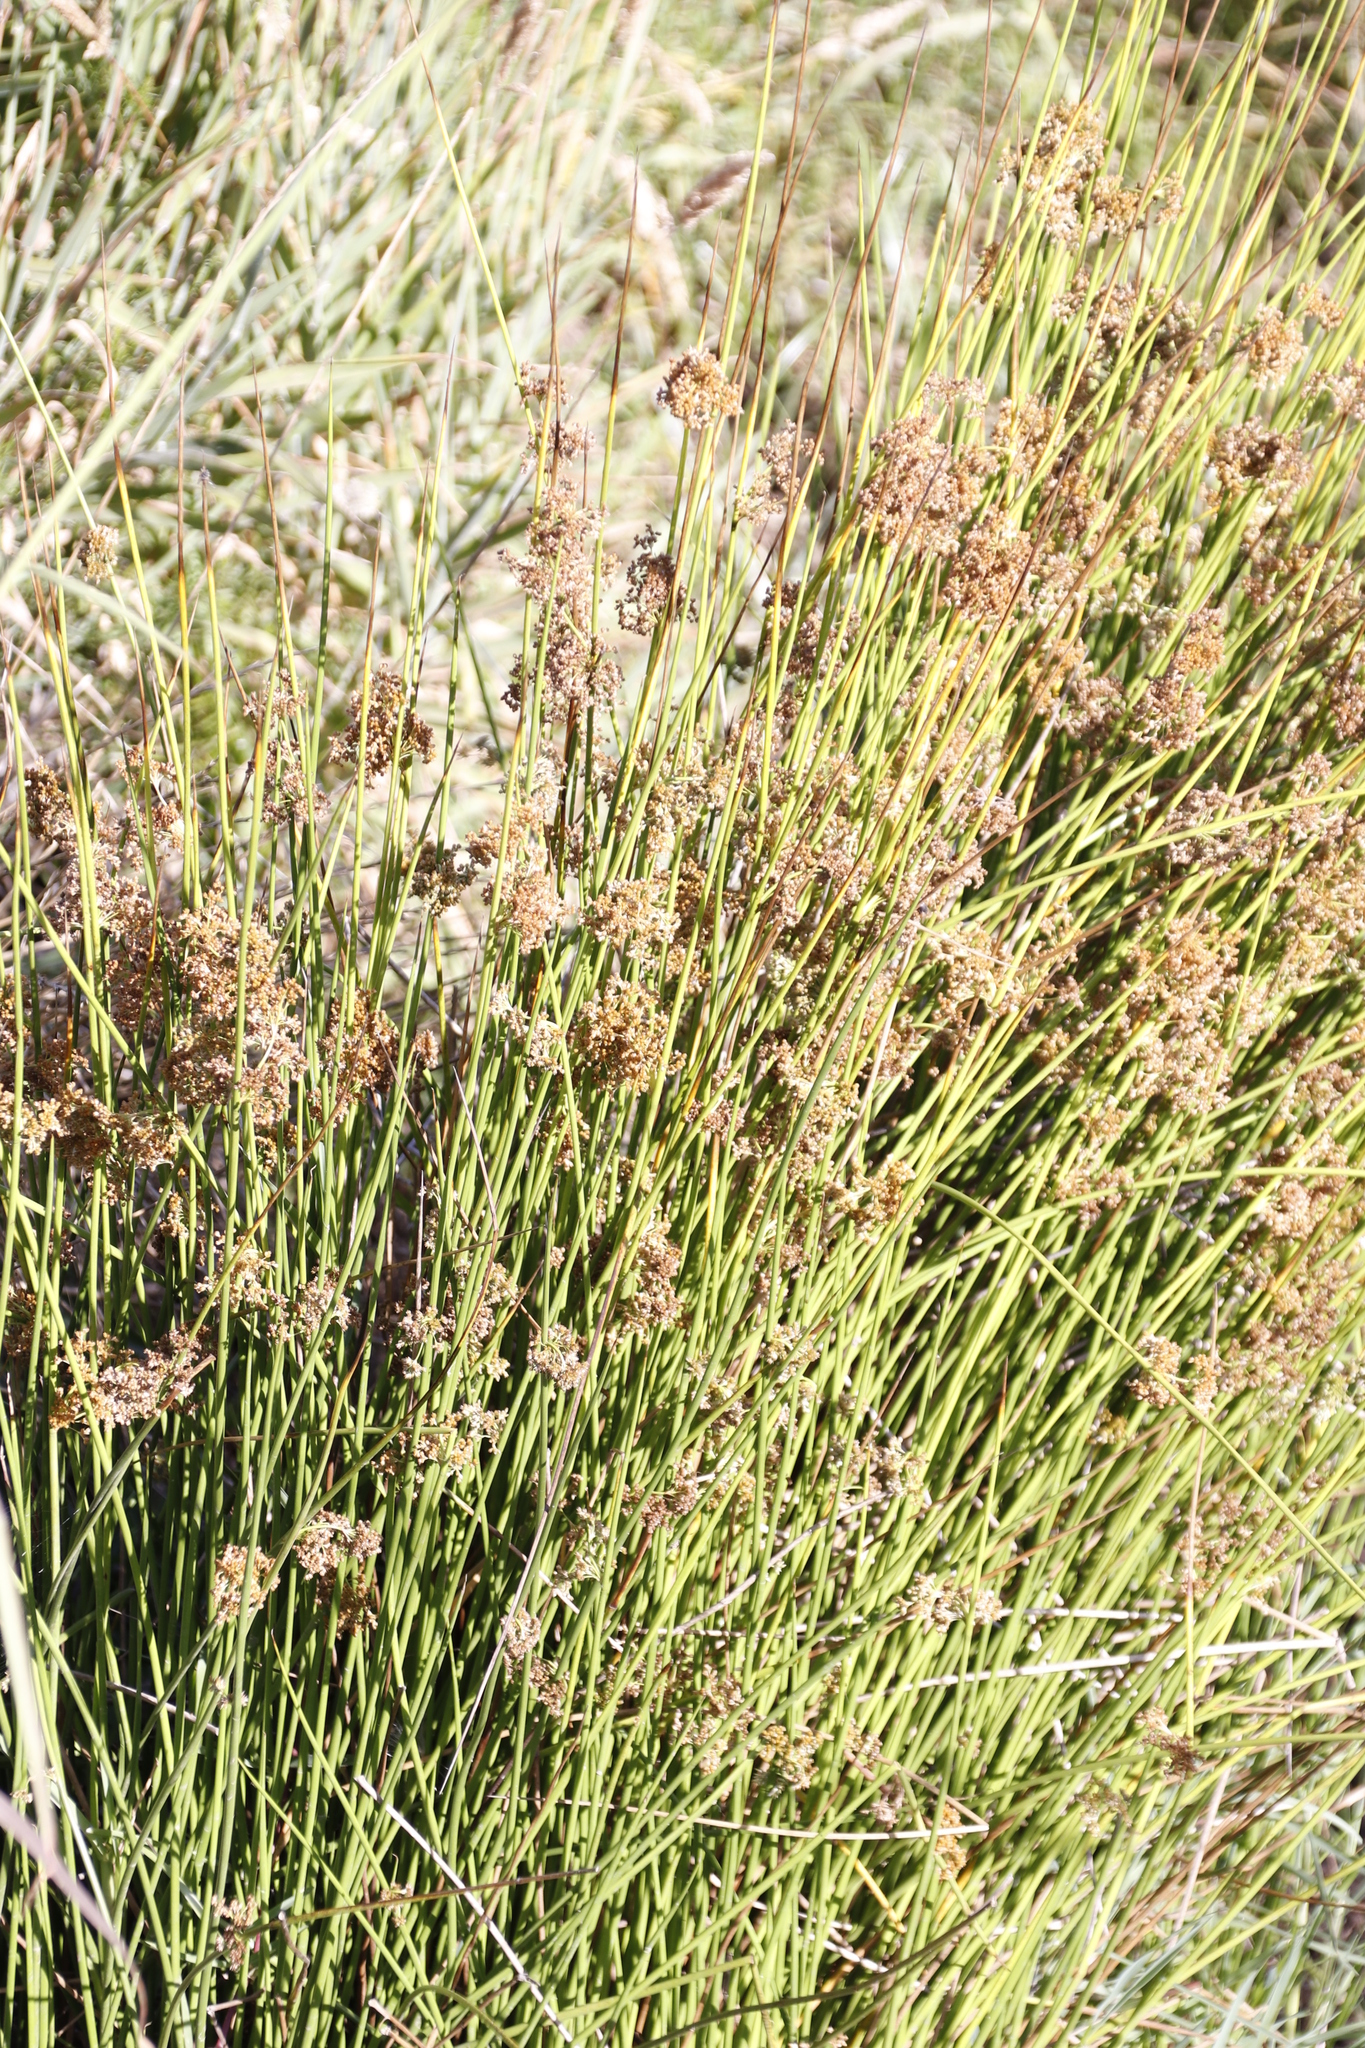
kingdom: Plantae
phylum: Tracheophyta
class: Liliopsida
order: Poales
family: Juncaceae
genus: Juncus
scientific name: Juncus effusus
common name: Soft rush
